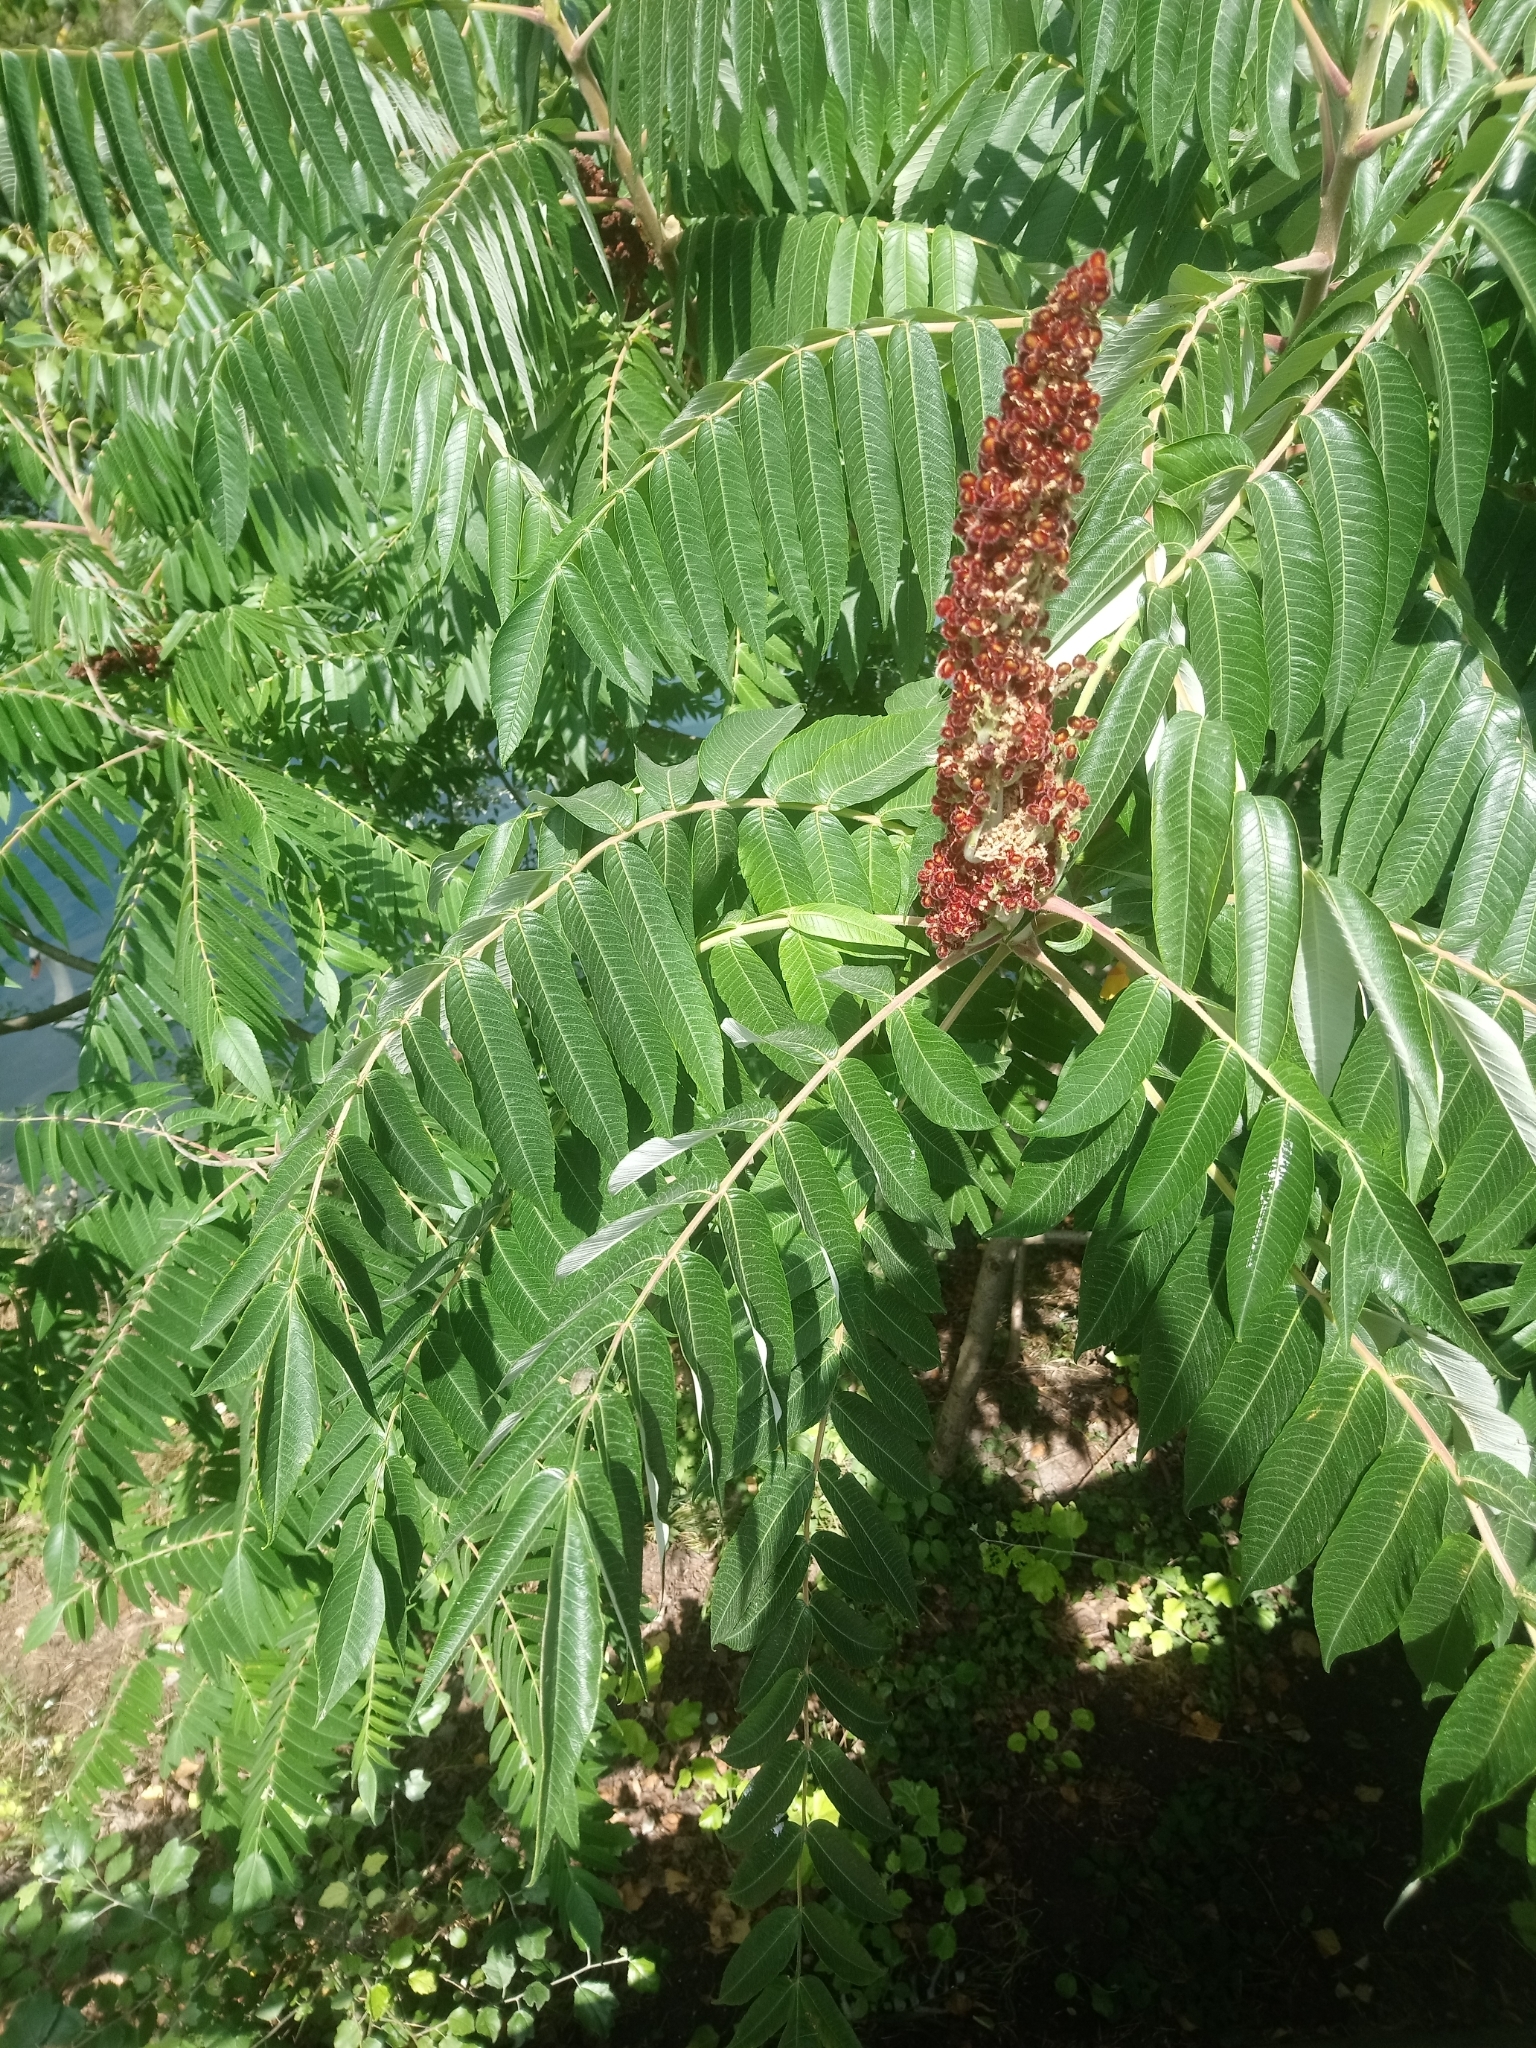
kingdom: Plantae
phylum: Tracheophyta
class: Magnoliopsida
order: Sapindales
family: Anacardiaceae
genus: Rhus
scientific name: Rhus typhina
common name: Staghorn sumac
